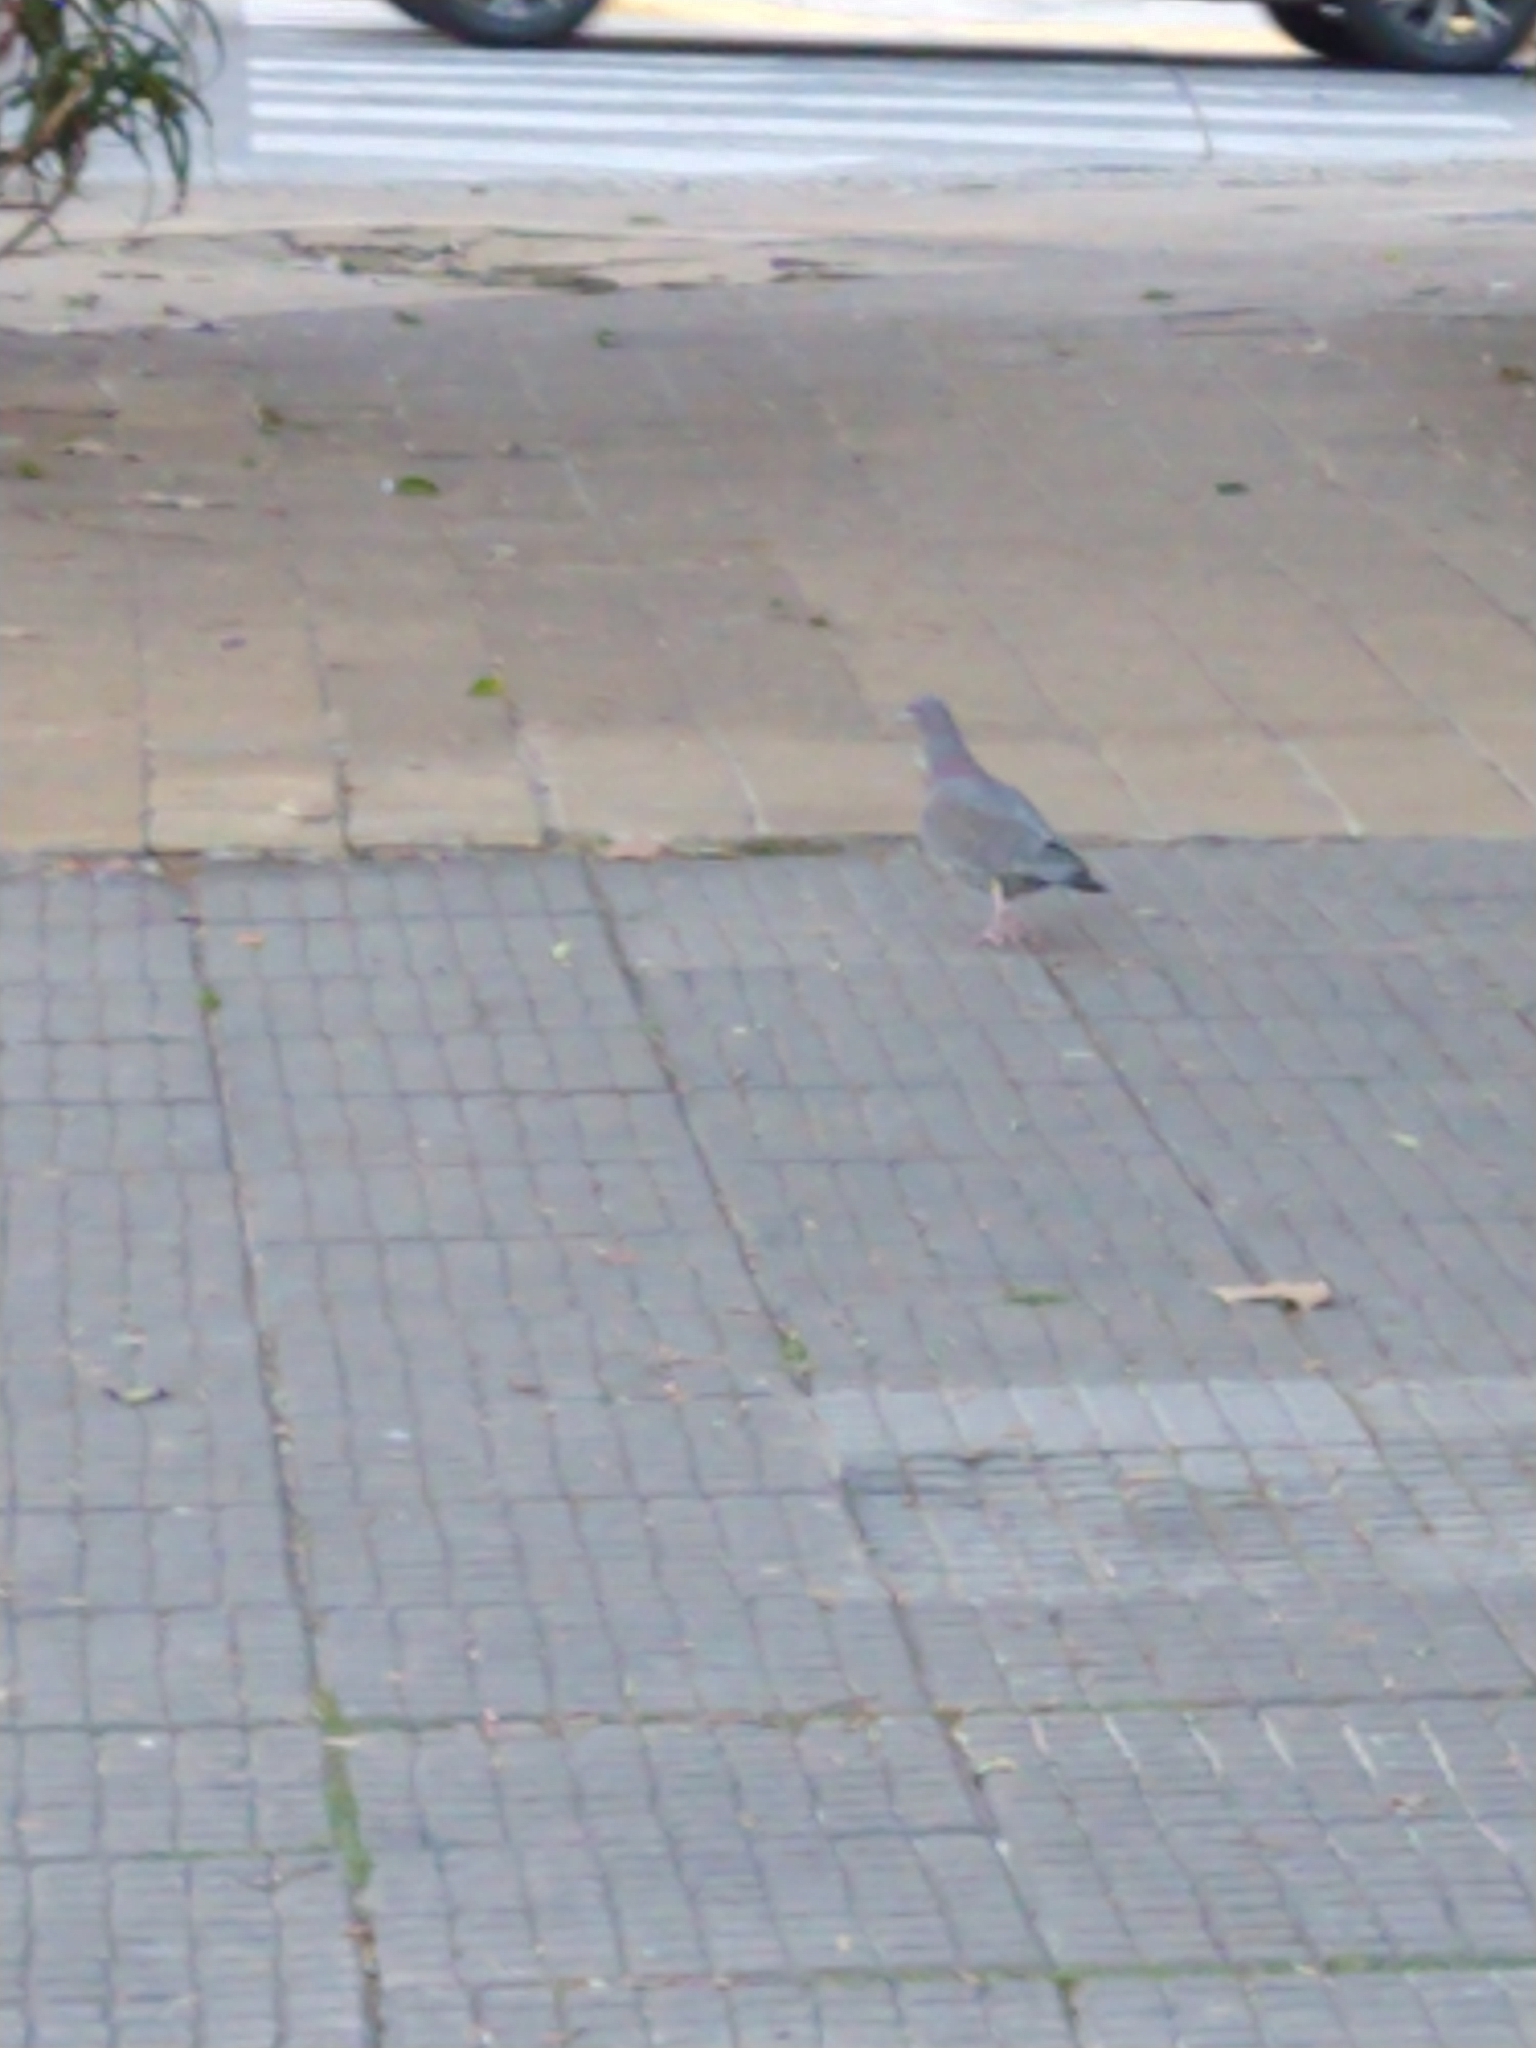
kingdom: Animalia
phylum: Chordata
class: Aves
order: Columbiformes
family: Columbidae
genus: Patagioenas
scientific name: Patagioenas picazuro
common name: Picazuro pigeon
